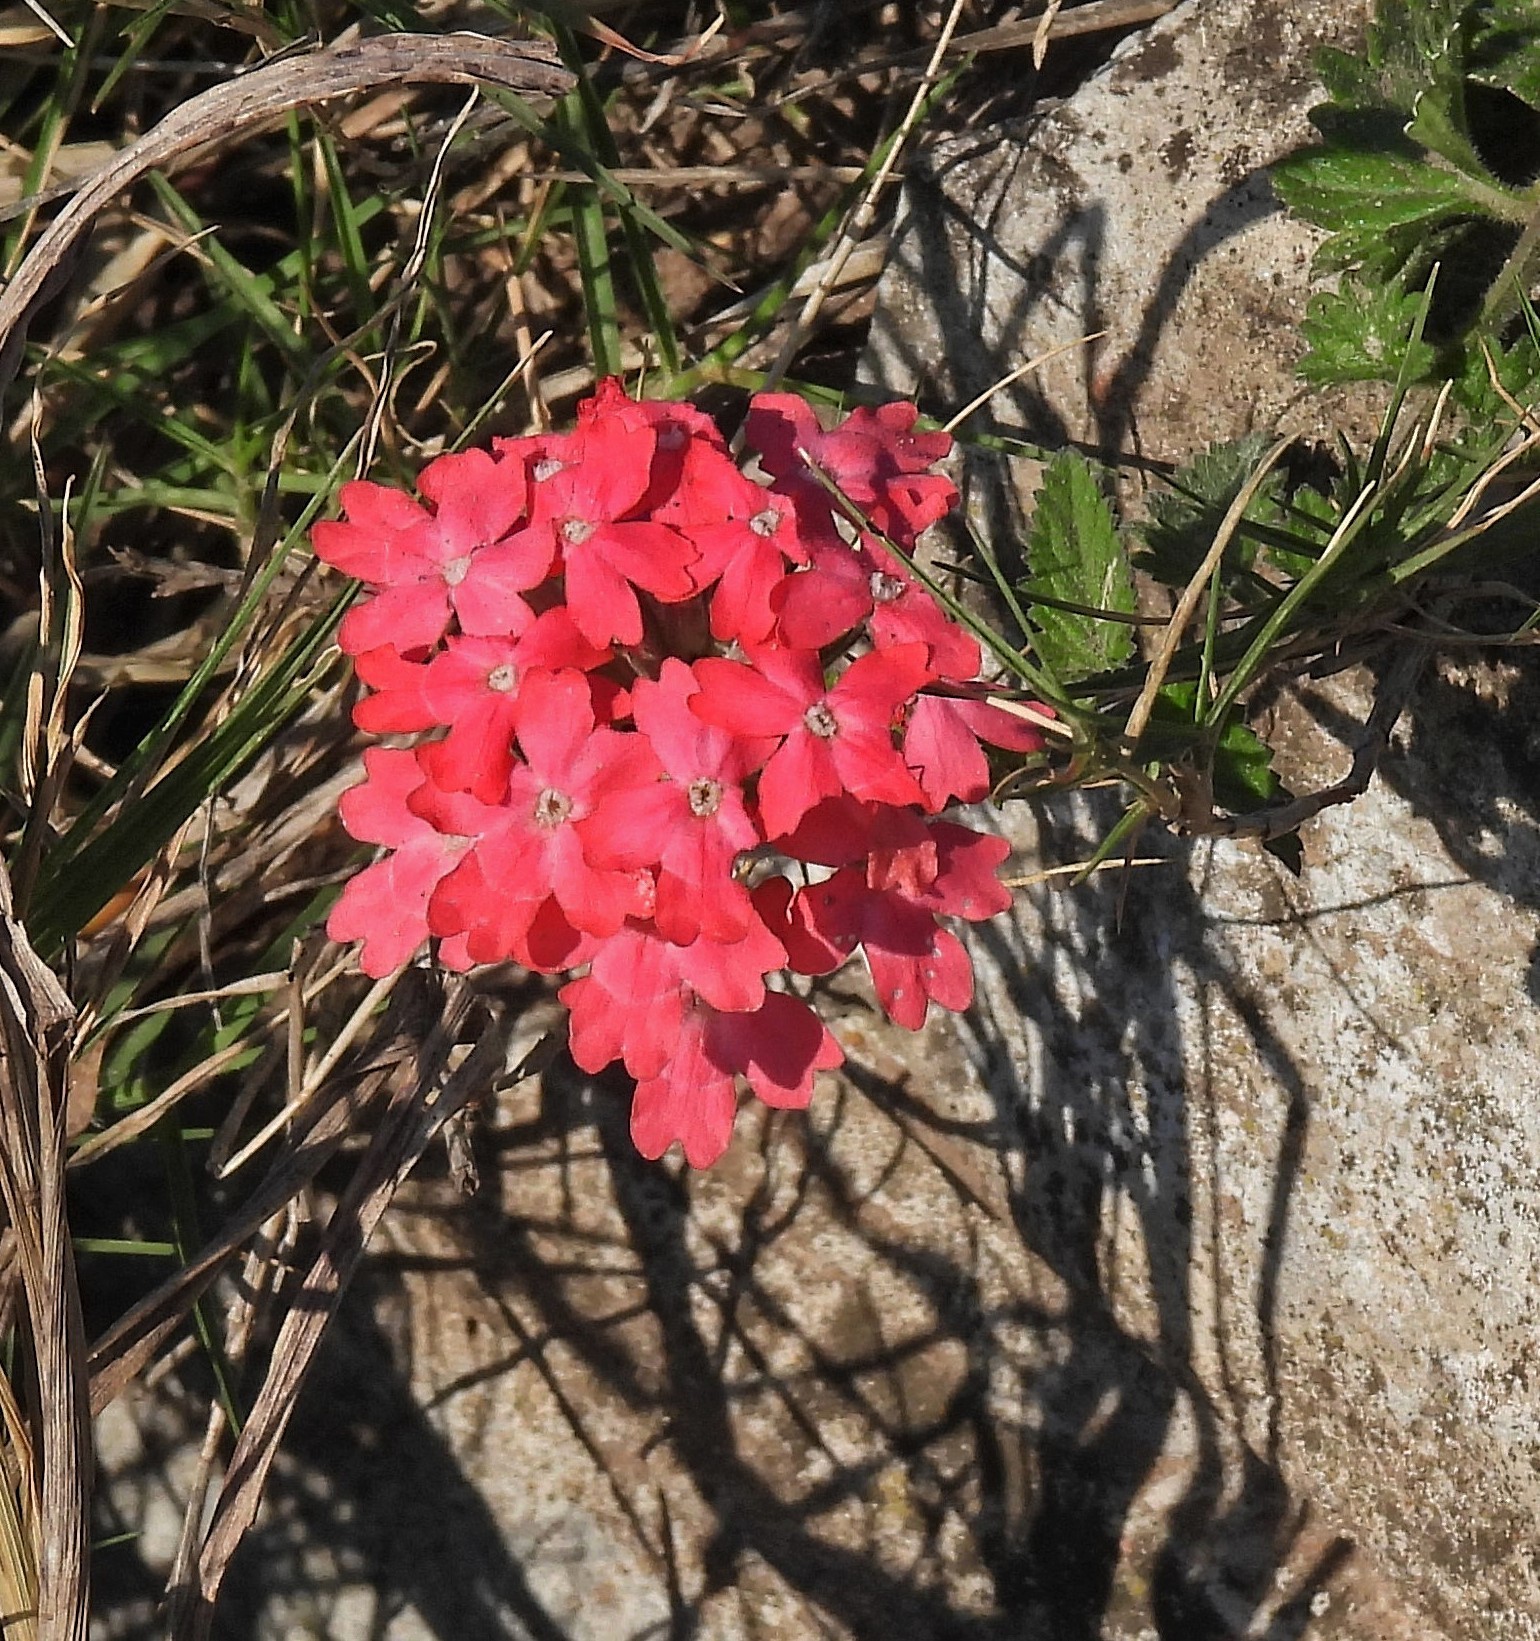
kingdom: Plantae
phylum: Tracheophyta
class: Magnoliopsida
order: Lamiales
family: Verbenaceae
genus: Verbena
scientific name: Verbena tweedieana
